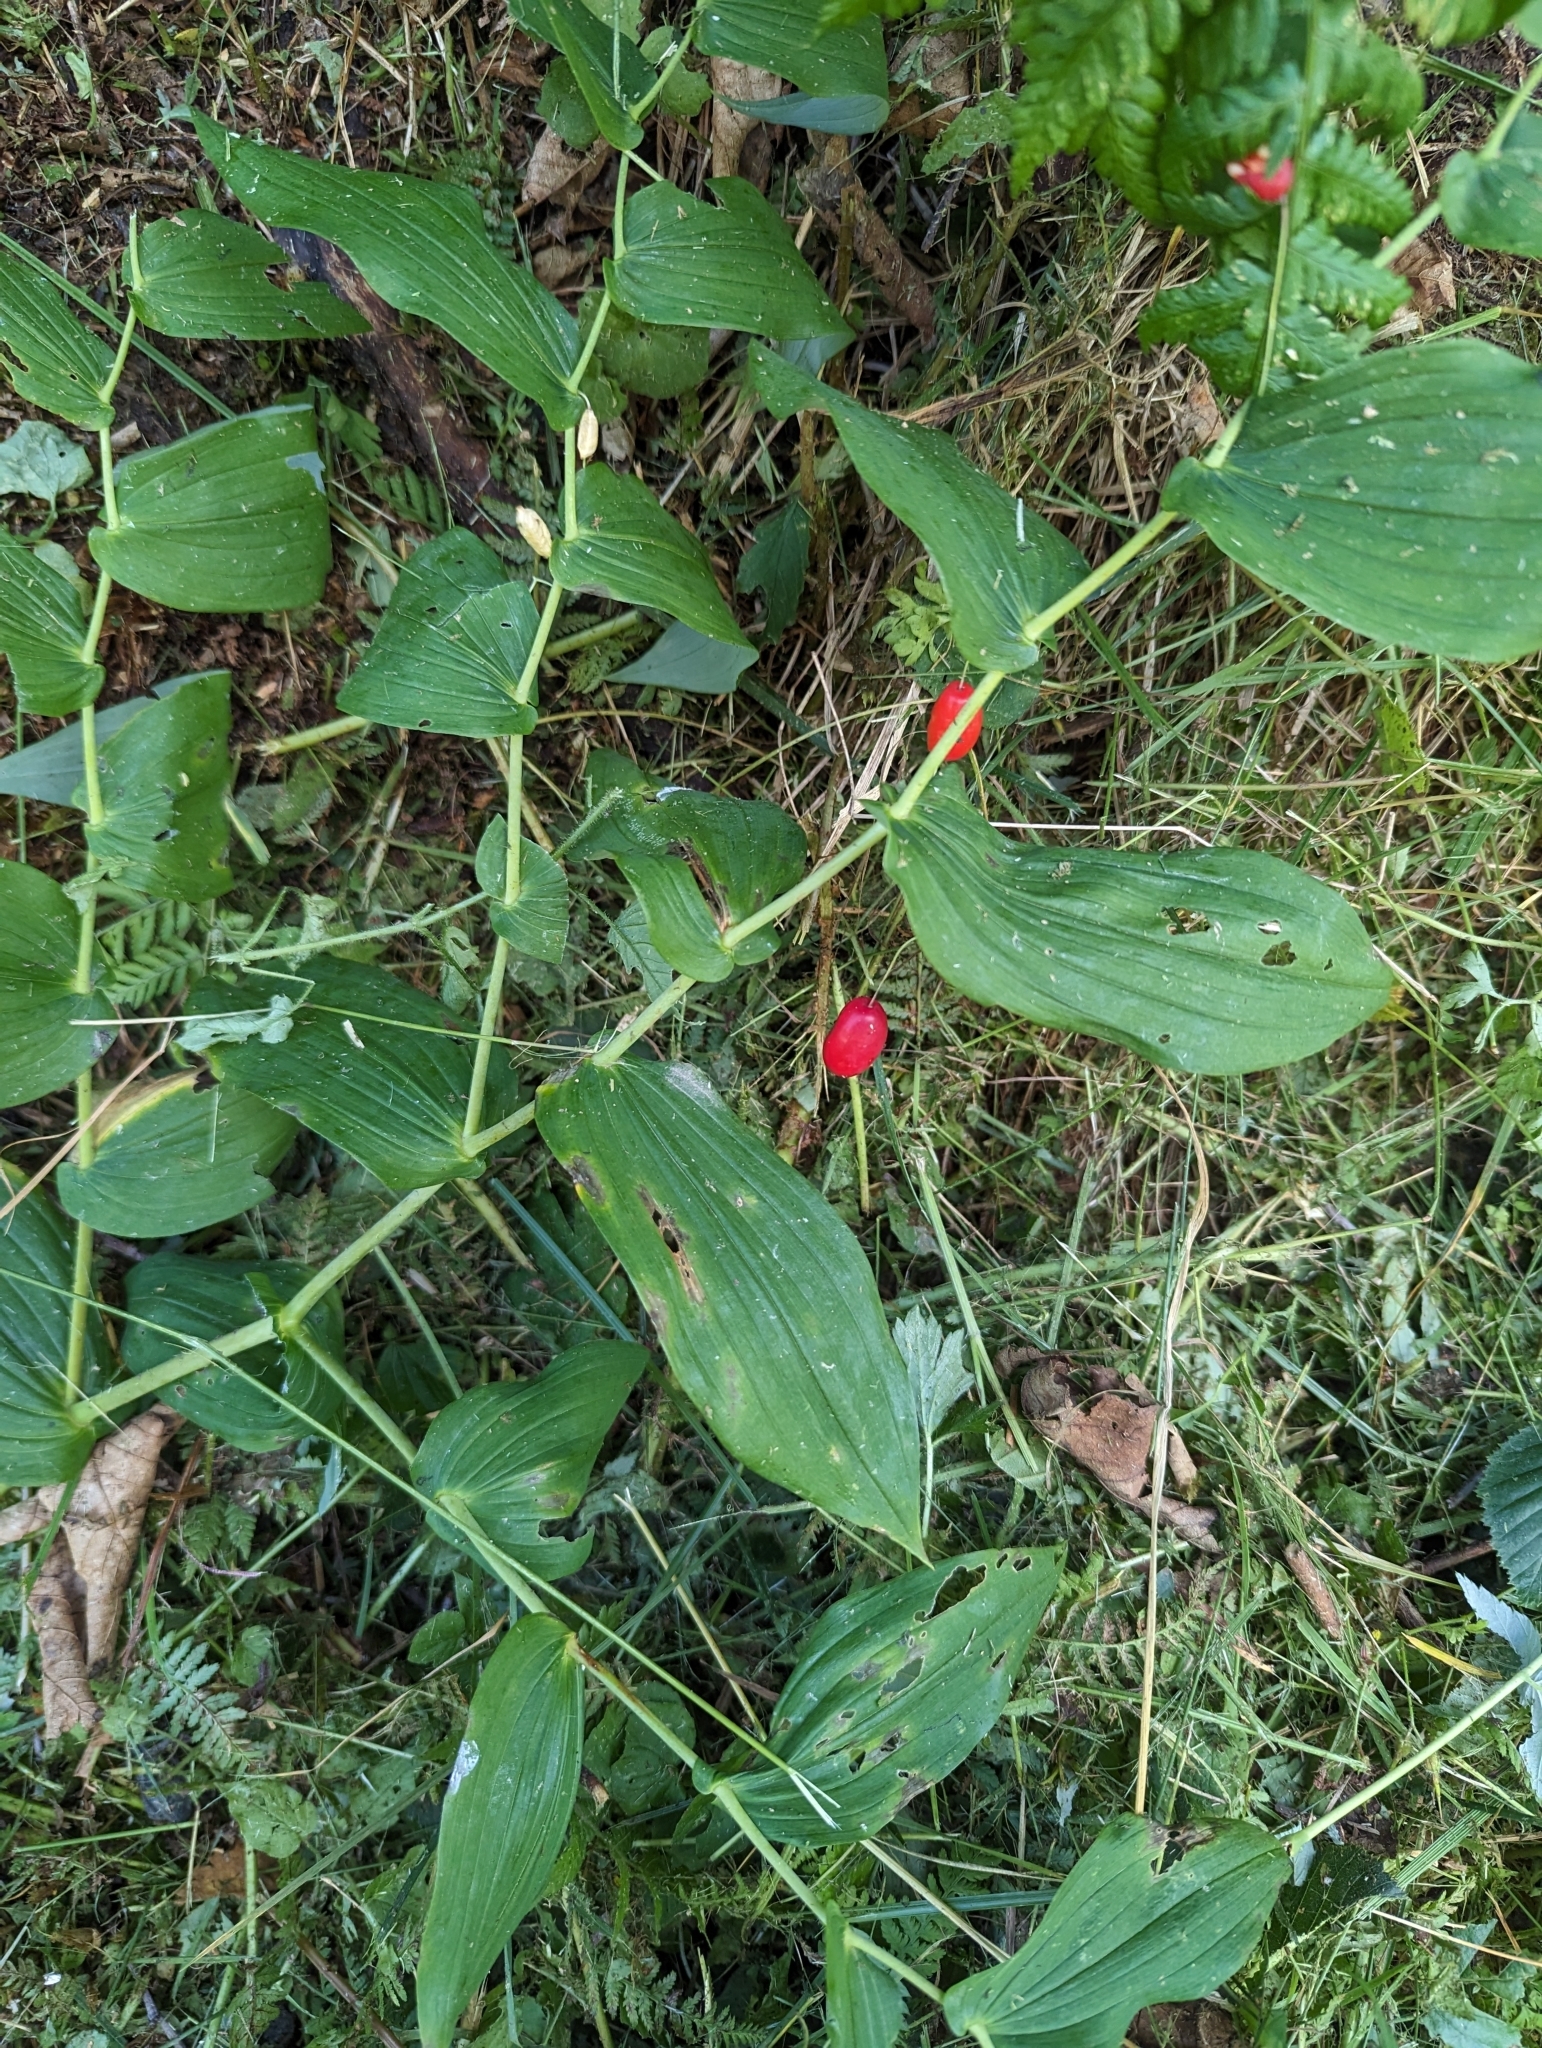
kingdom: Plantae
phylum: Tracheophyta
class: Liliopsida
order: Liliales
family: Liliaceae
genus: Streptopus
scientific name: Streptopus amplexifolius
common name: Clasp twisted stalk
